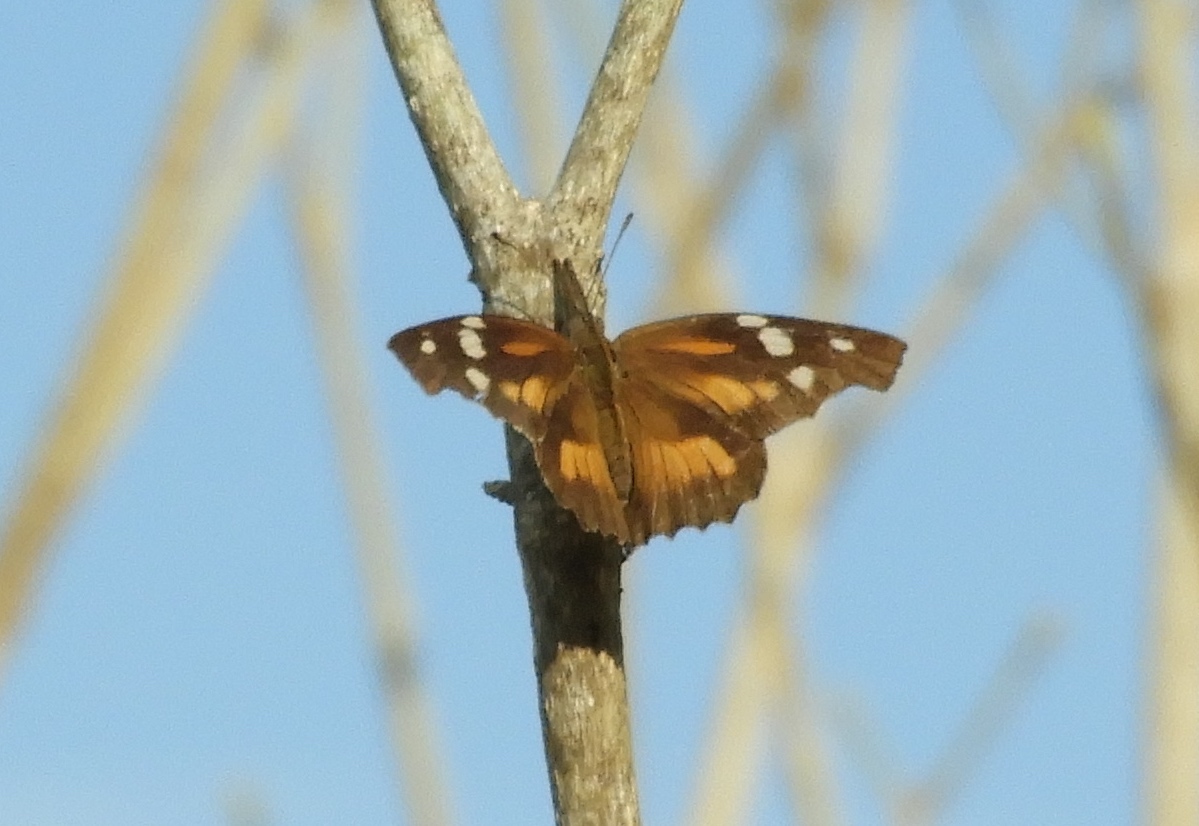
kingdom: Animalia
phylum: Arthropoda
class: Insecta
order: Lepidoptera
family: Nymphalidae
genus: Libytheana
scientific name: Libytheana carinenta
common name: American snout
